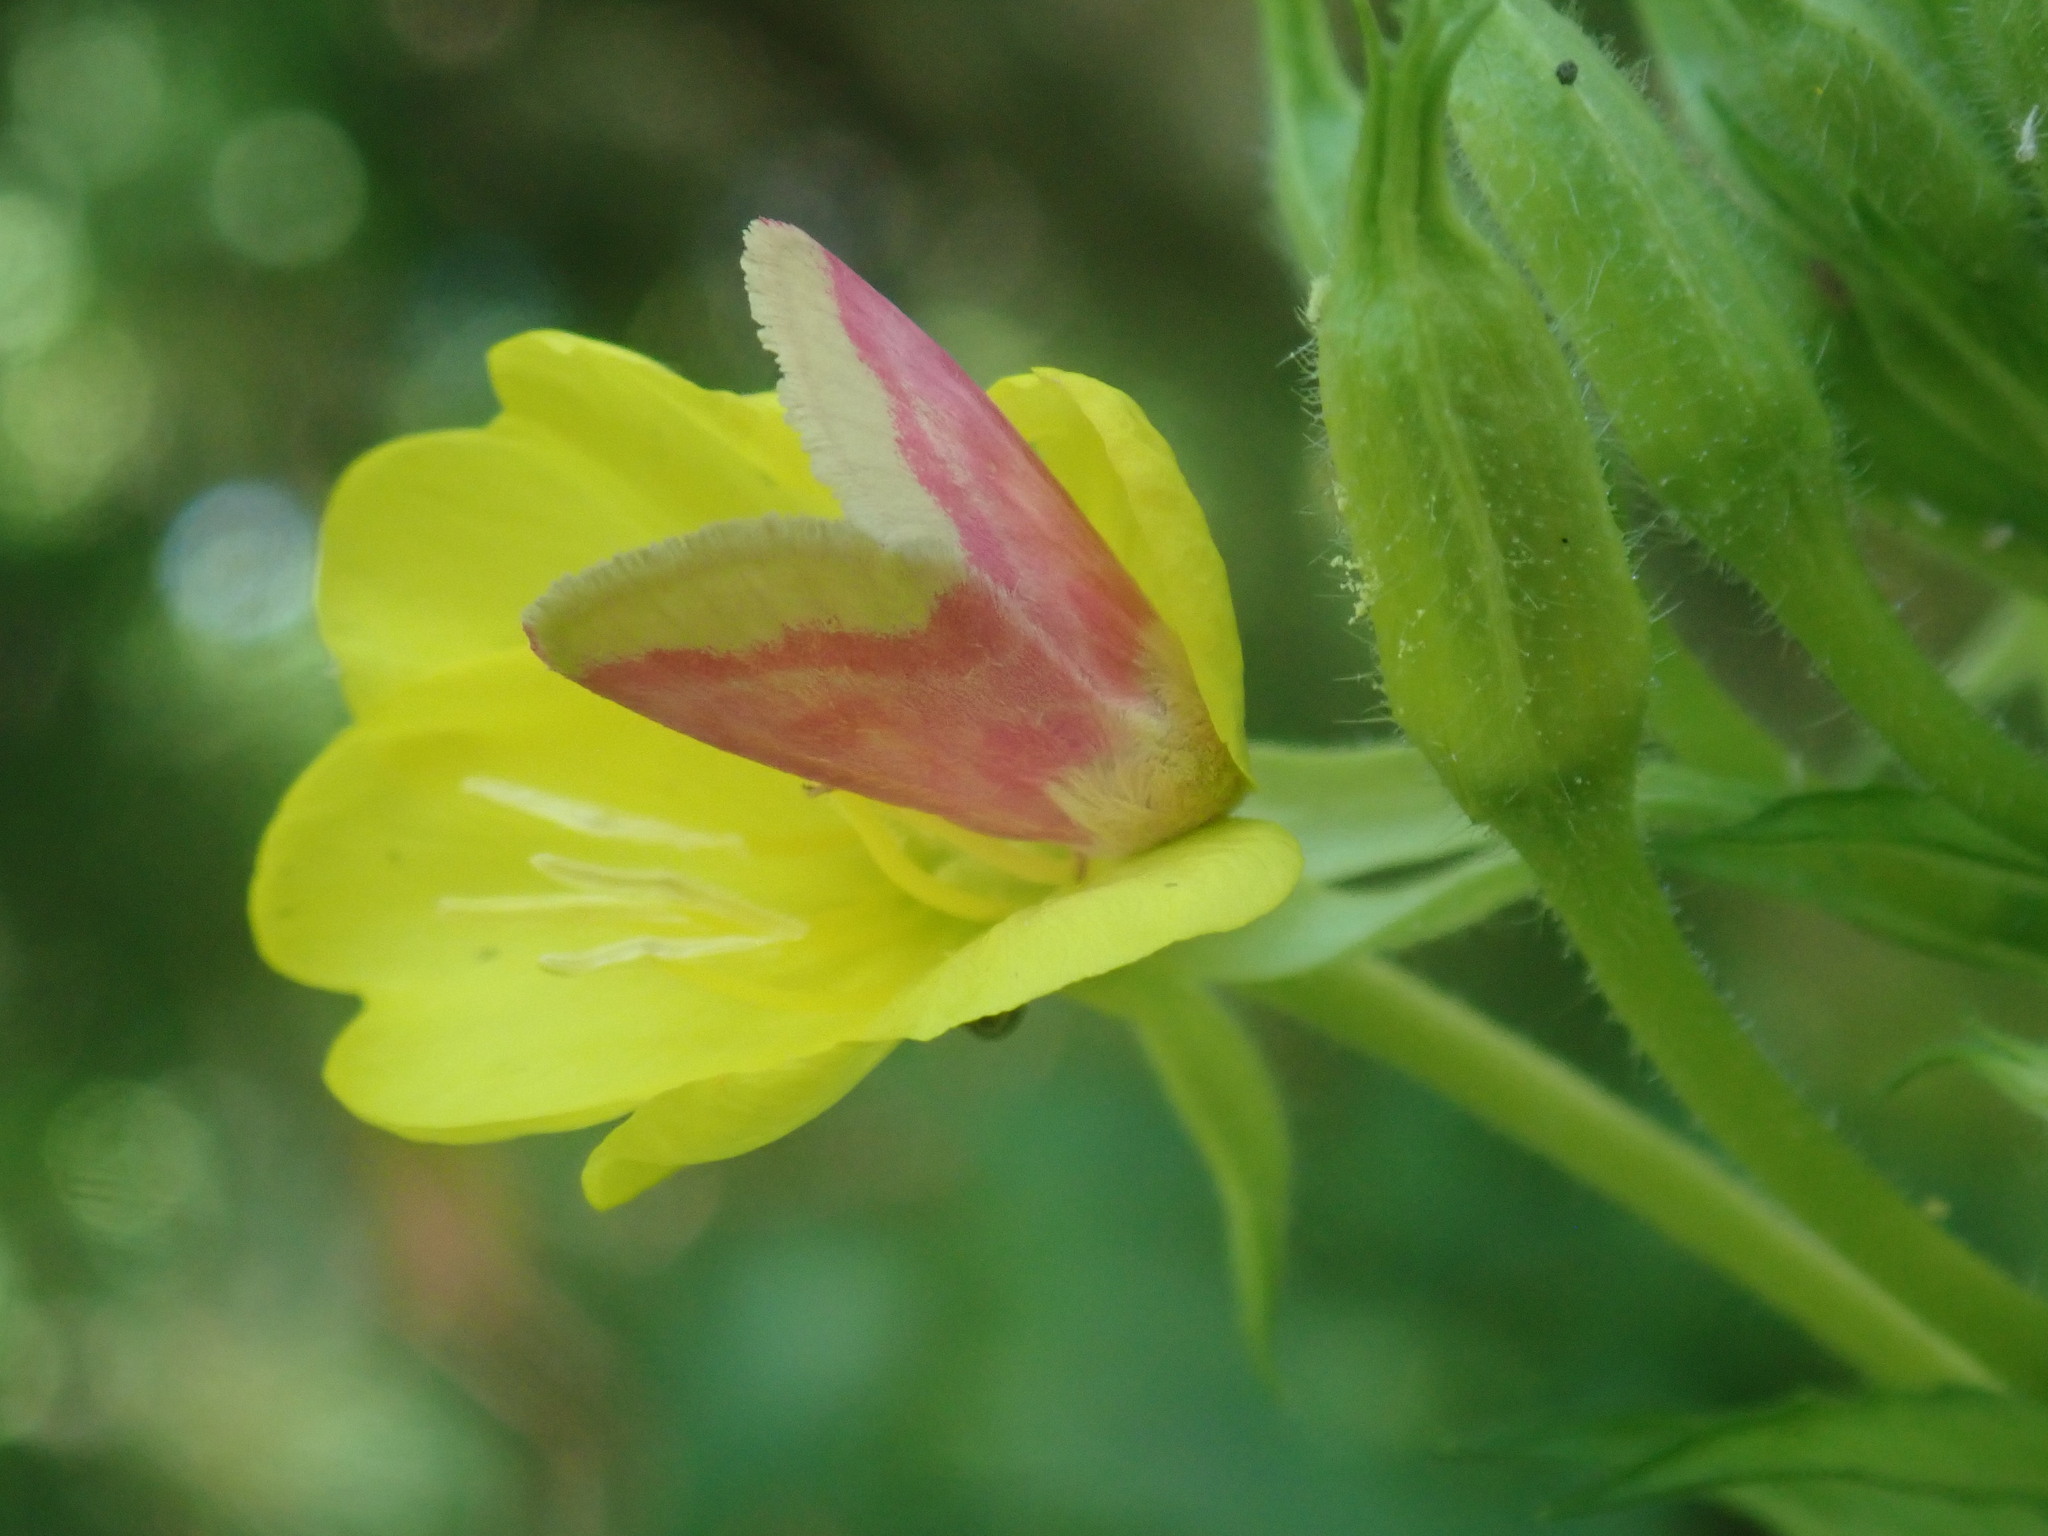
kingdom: Animalia
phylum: Arthropoda
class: Insecta
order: Lepidoptera
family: Noctuidae
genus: Schinia
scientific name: Schinia florida
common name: Primrose moth
